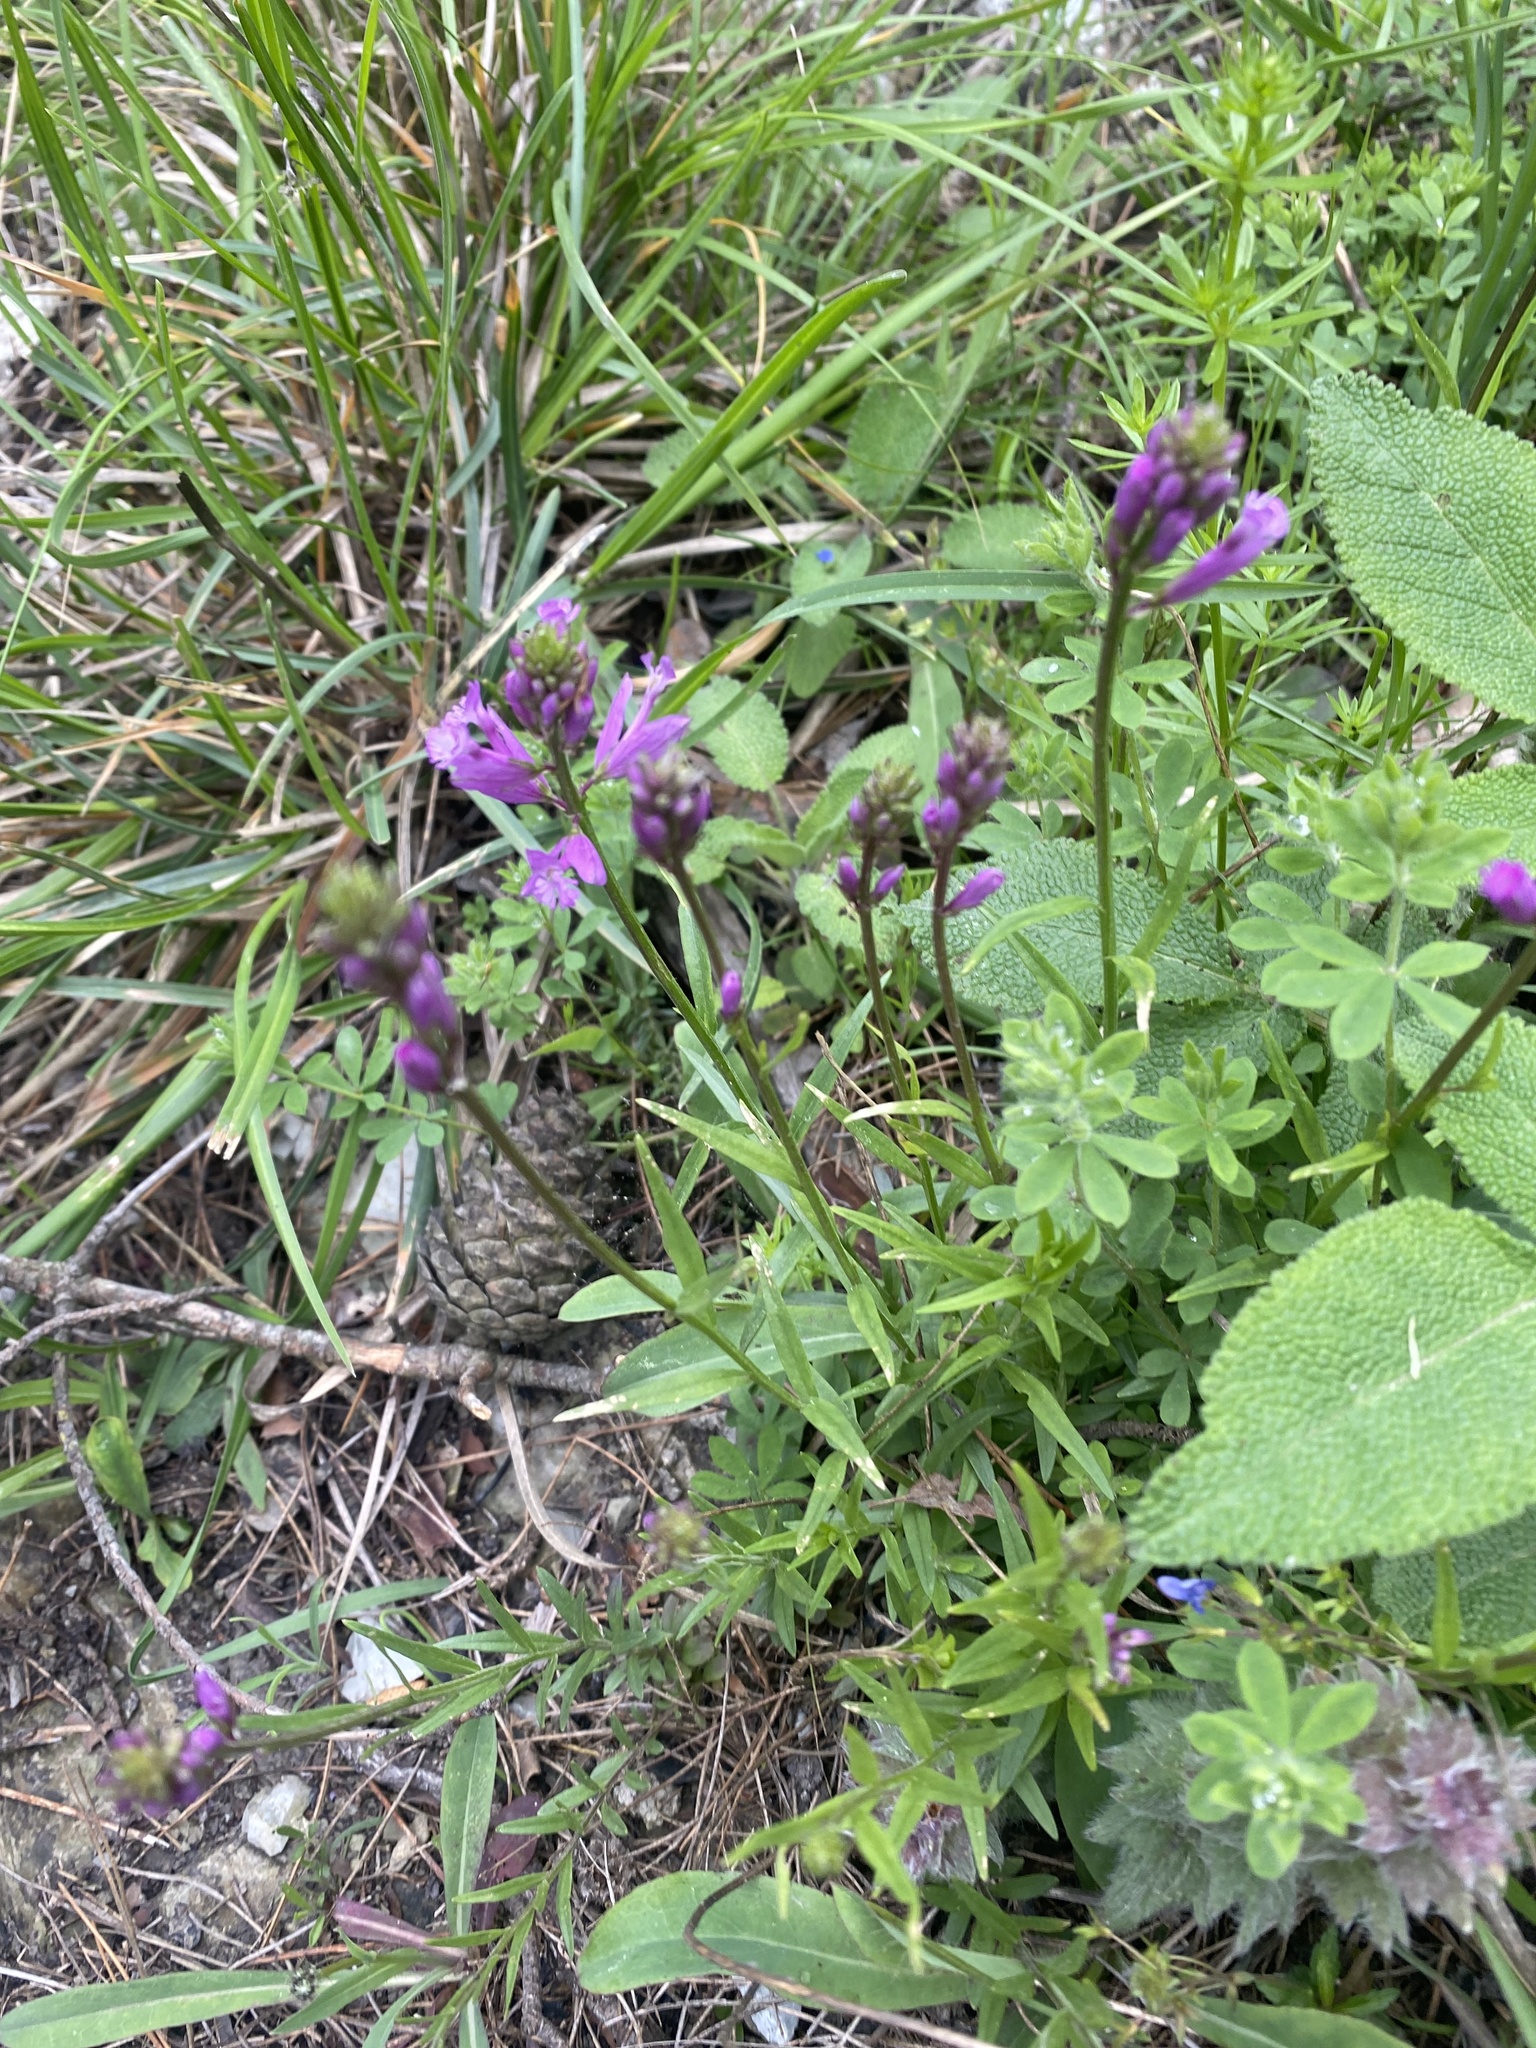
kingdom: Plantae
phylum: Tracheophyta
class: Magnoliopsida
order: Fabales
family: Polygalaceae
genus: Polygala
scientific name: Polygala major
